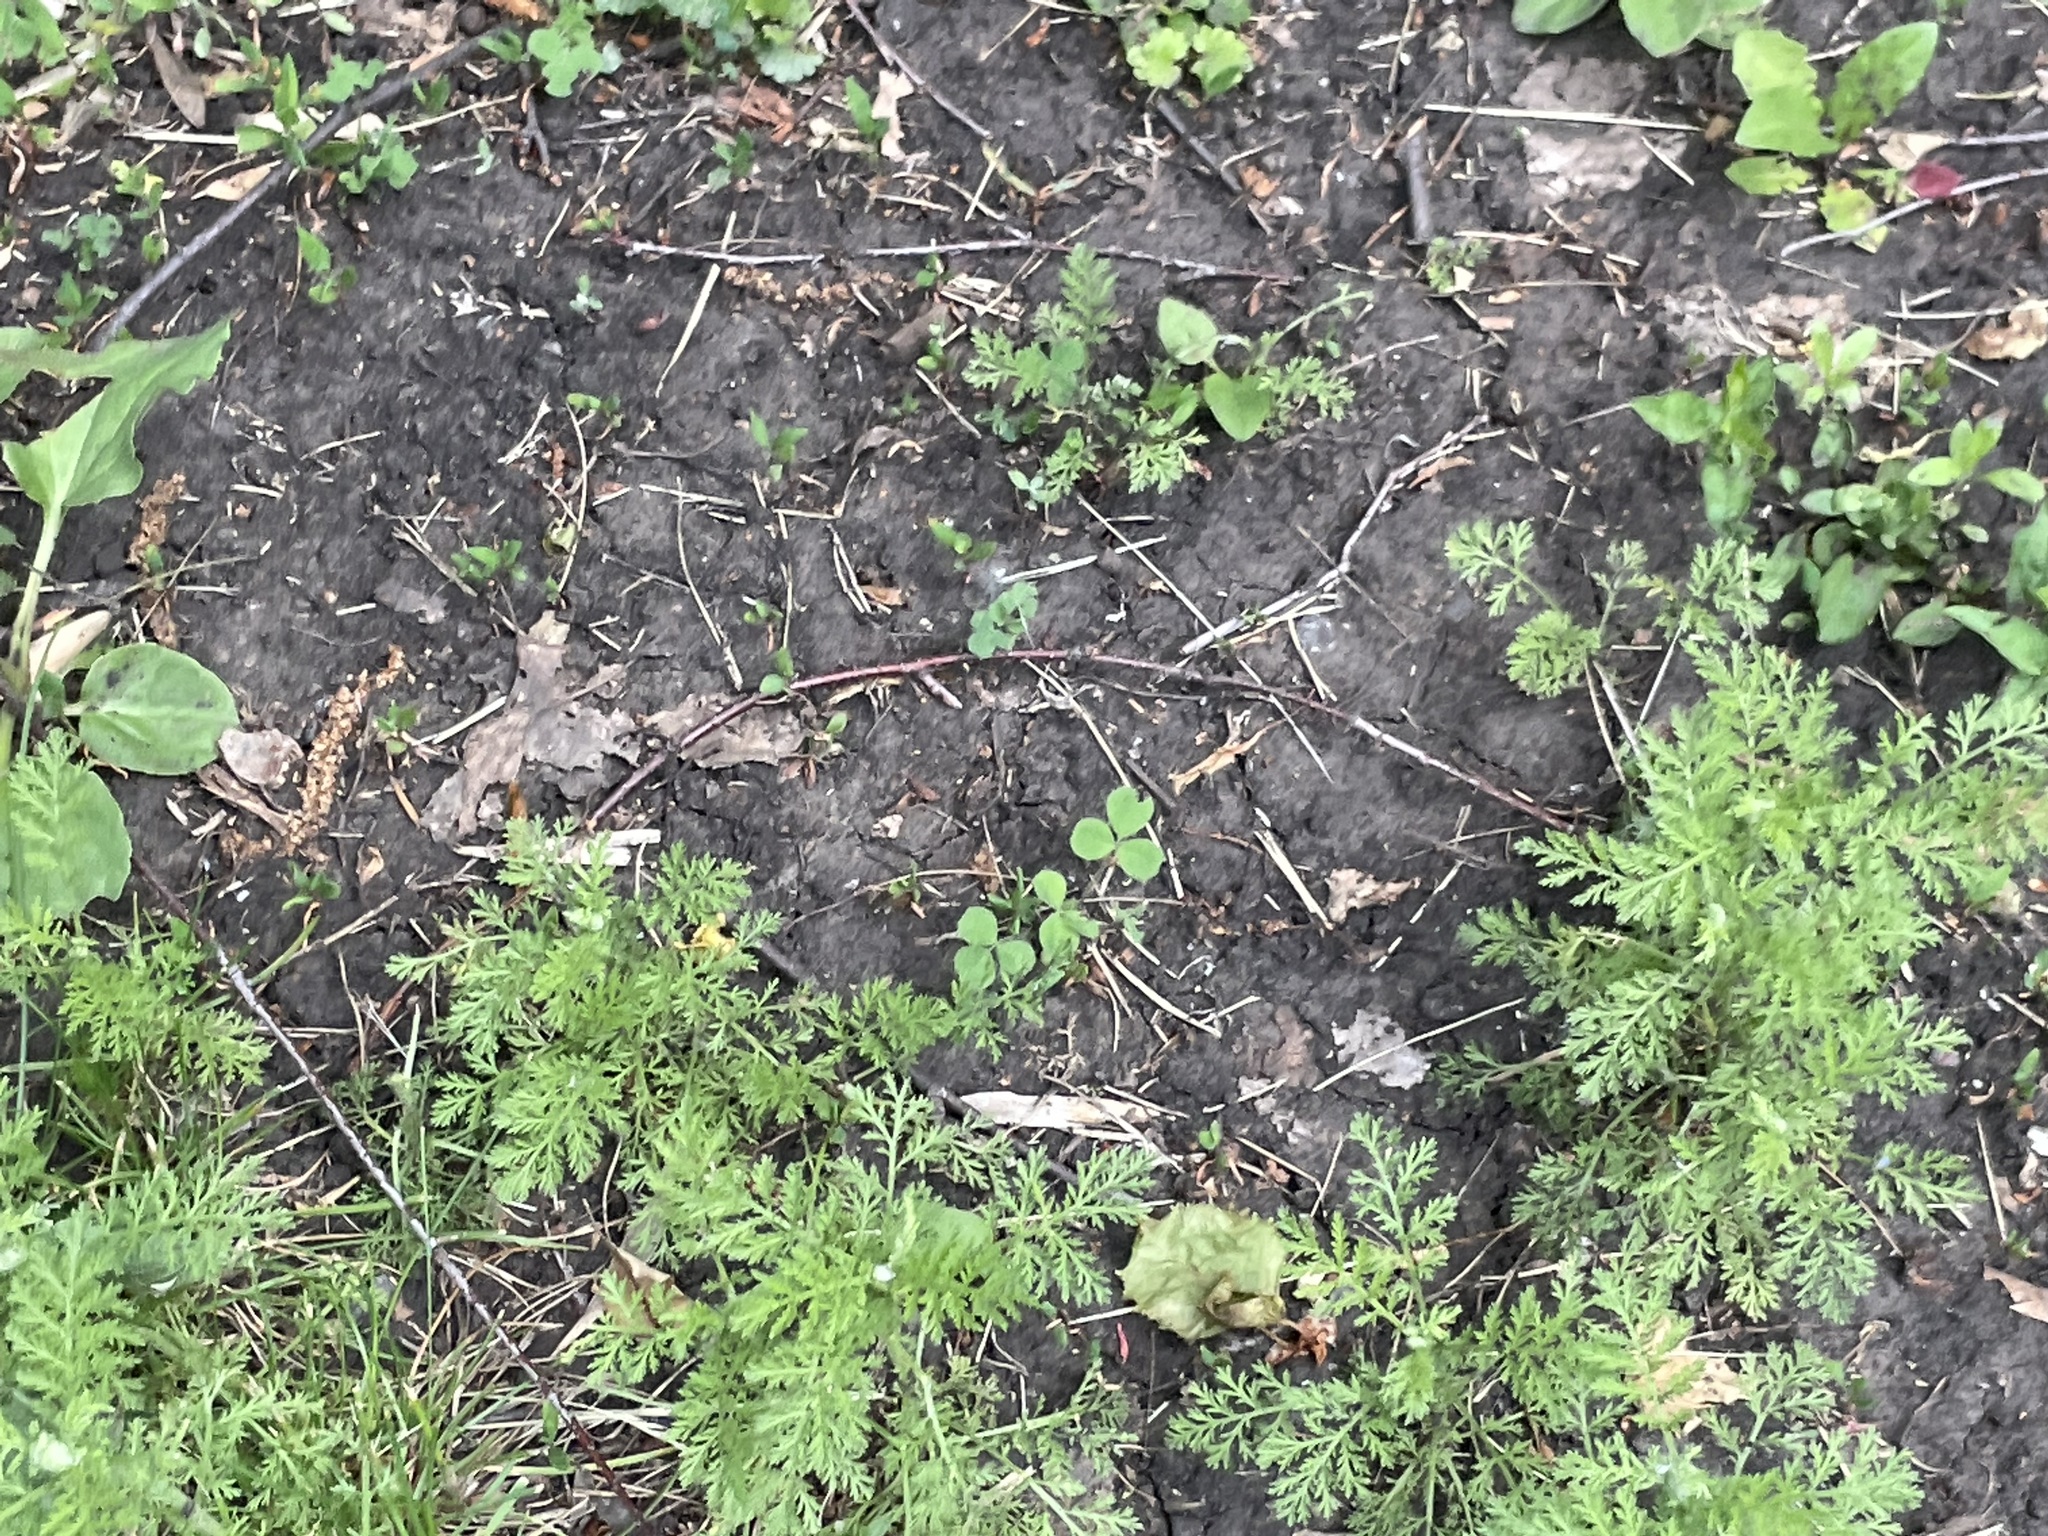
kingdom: Plantae
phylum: Tracheophyta
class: Magnoliopsida
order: Asterales
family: Asteraceae
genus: Achillea
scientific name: Achillea nobilis
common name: Noble yarrow
